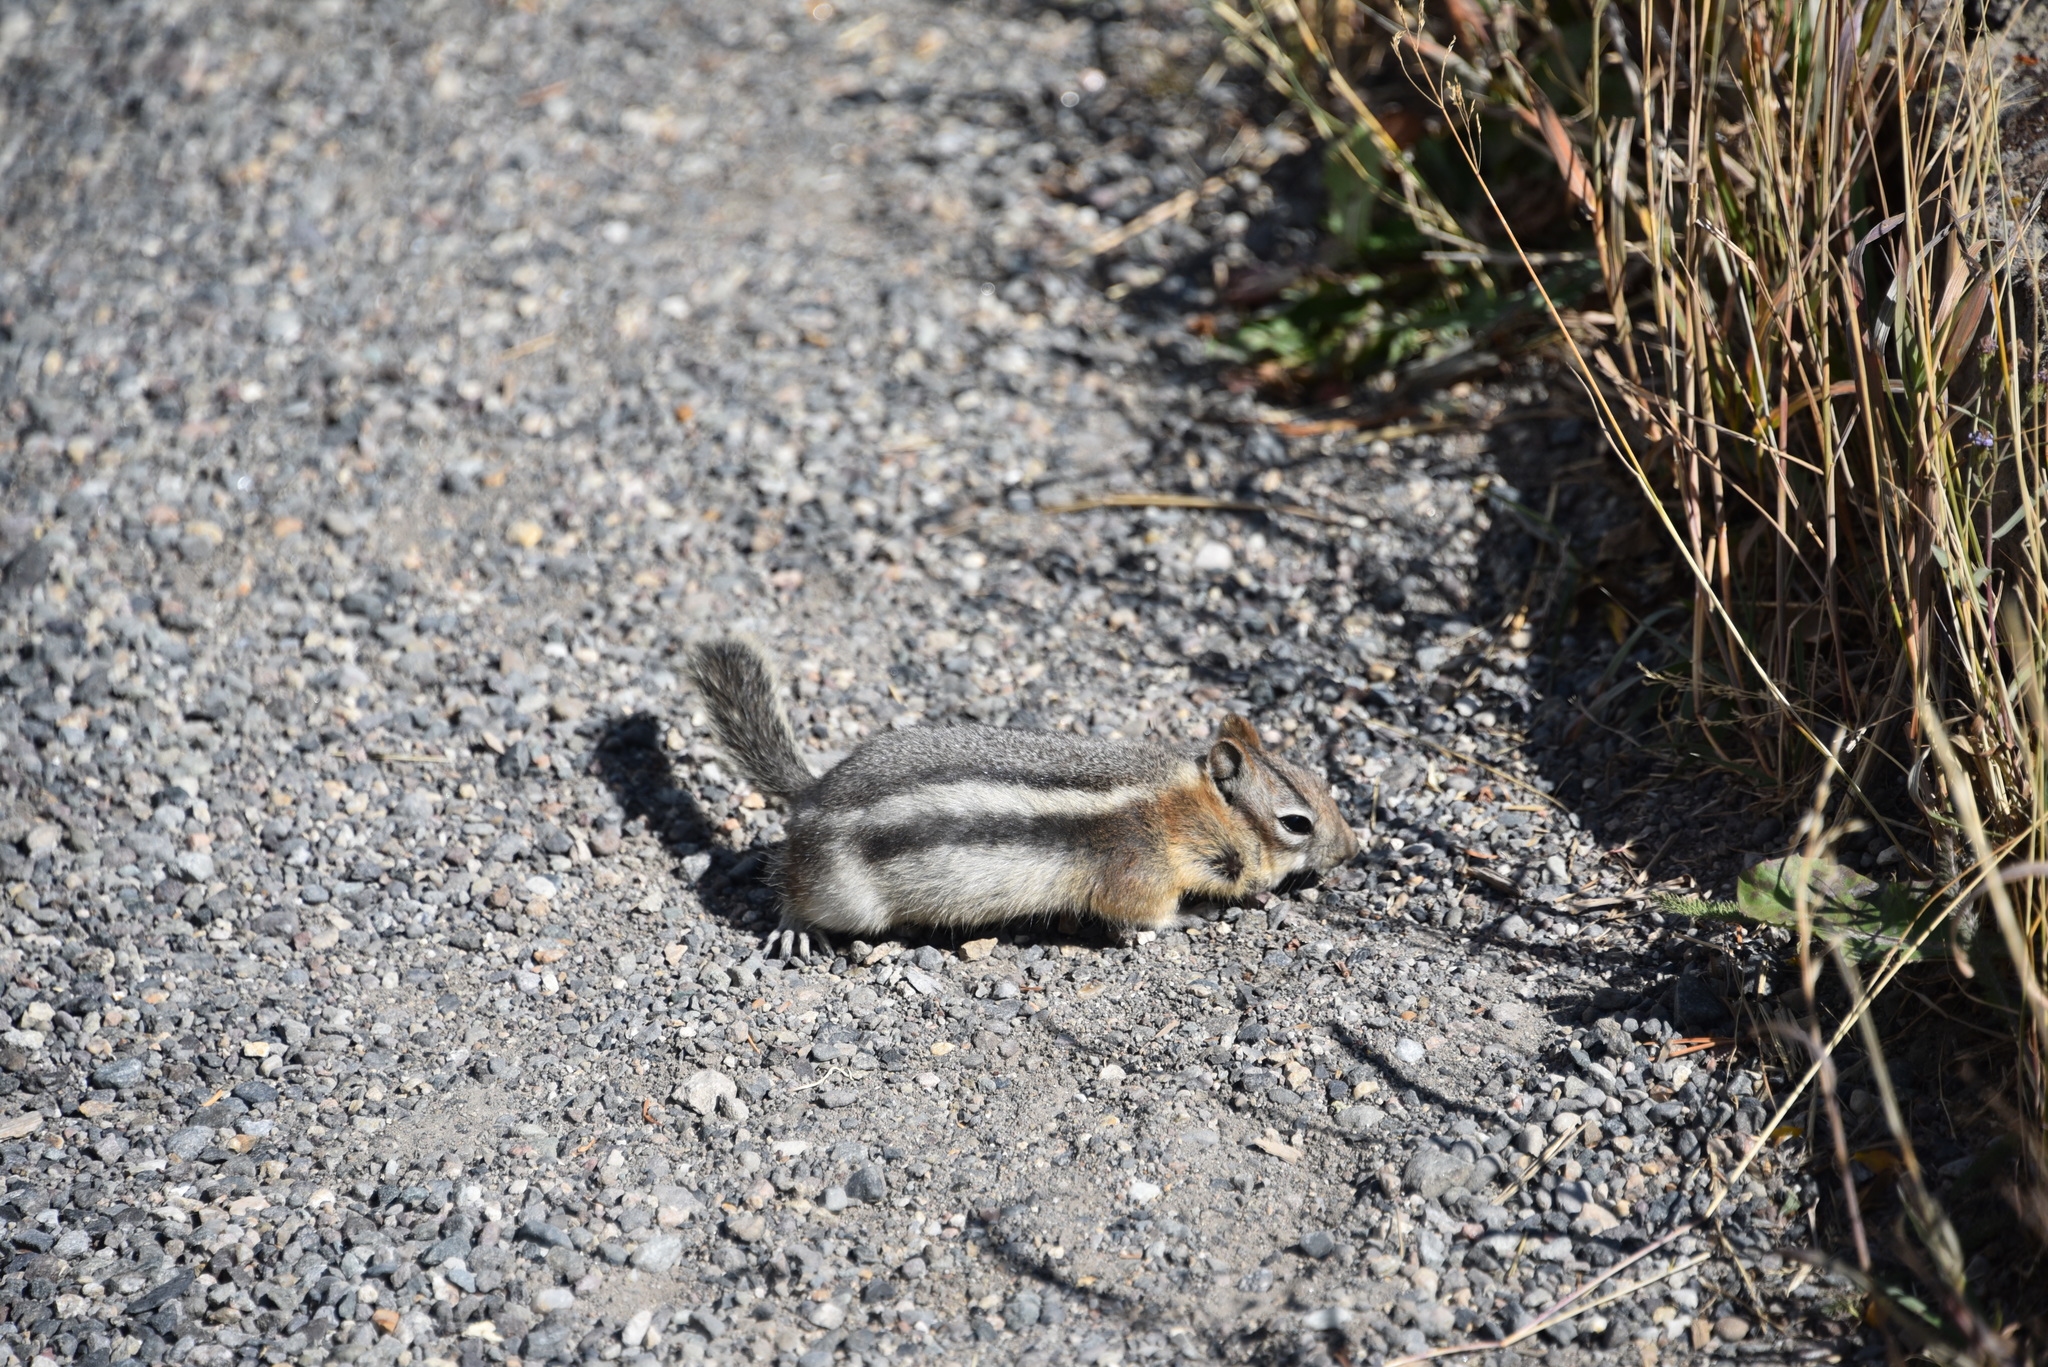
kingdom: Animalia
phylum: Chordata
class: Mammalia
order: Rodentia
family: Sciuridae
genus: Callospermophilus
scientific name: Callospermophilus lateralis
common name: Golden-mantled ground squirrel
